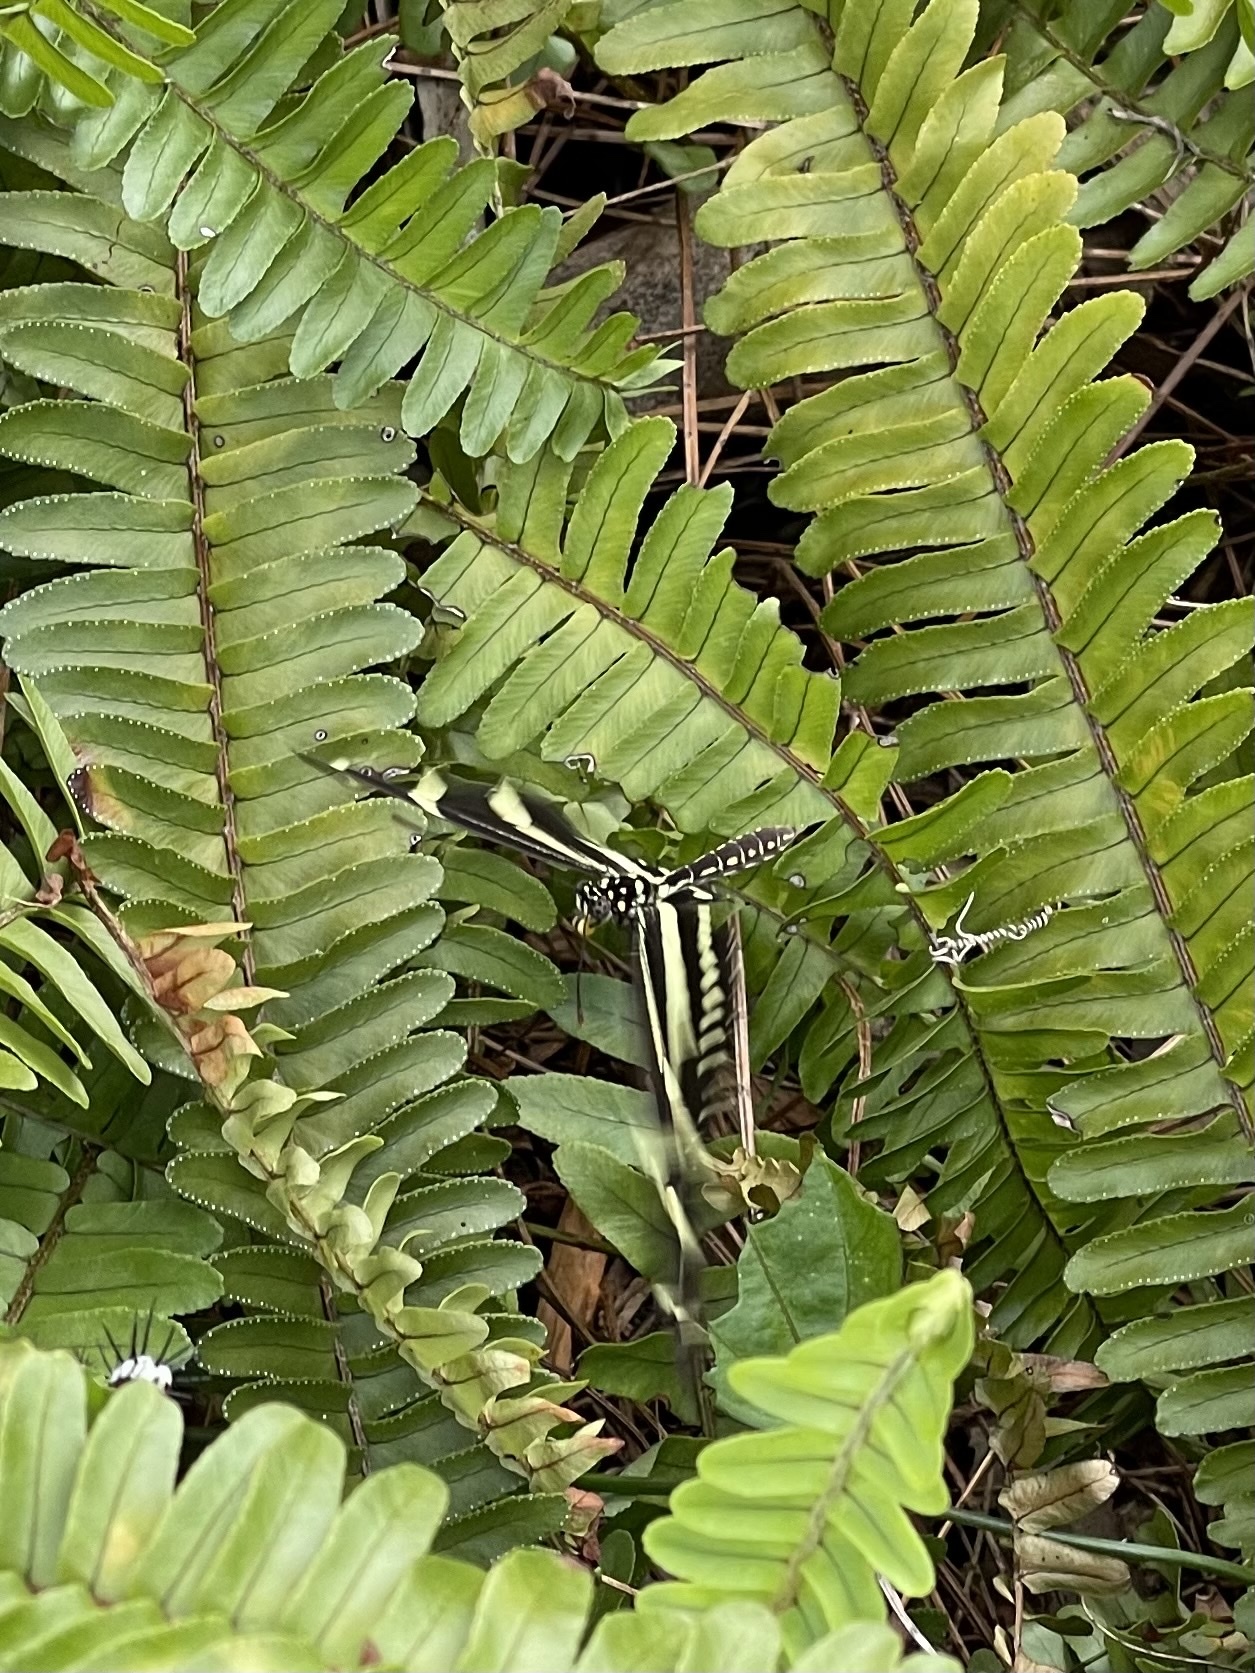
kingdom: Animalia
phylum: Arthropoda
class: Insecta
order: Lepidoptera
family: Nymphalidae
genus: Heliconius
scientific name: Heliconius charithonia
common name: Zebra long wing
